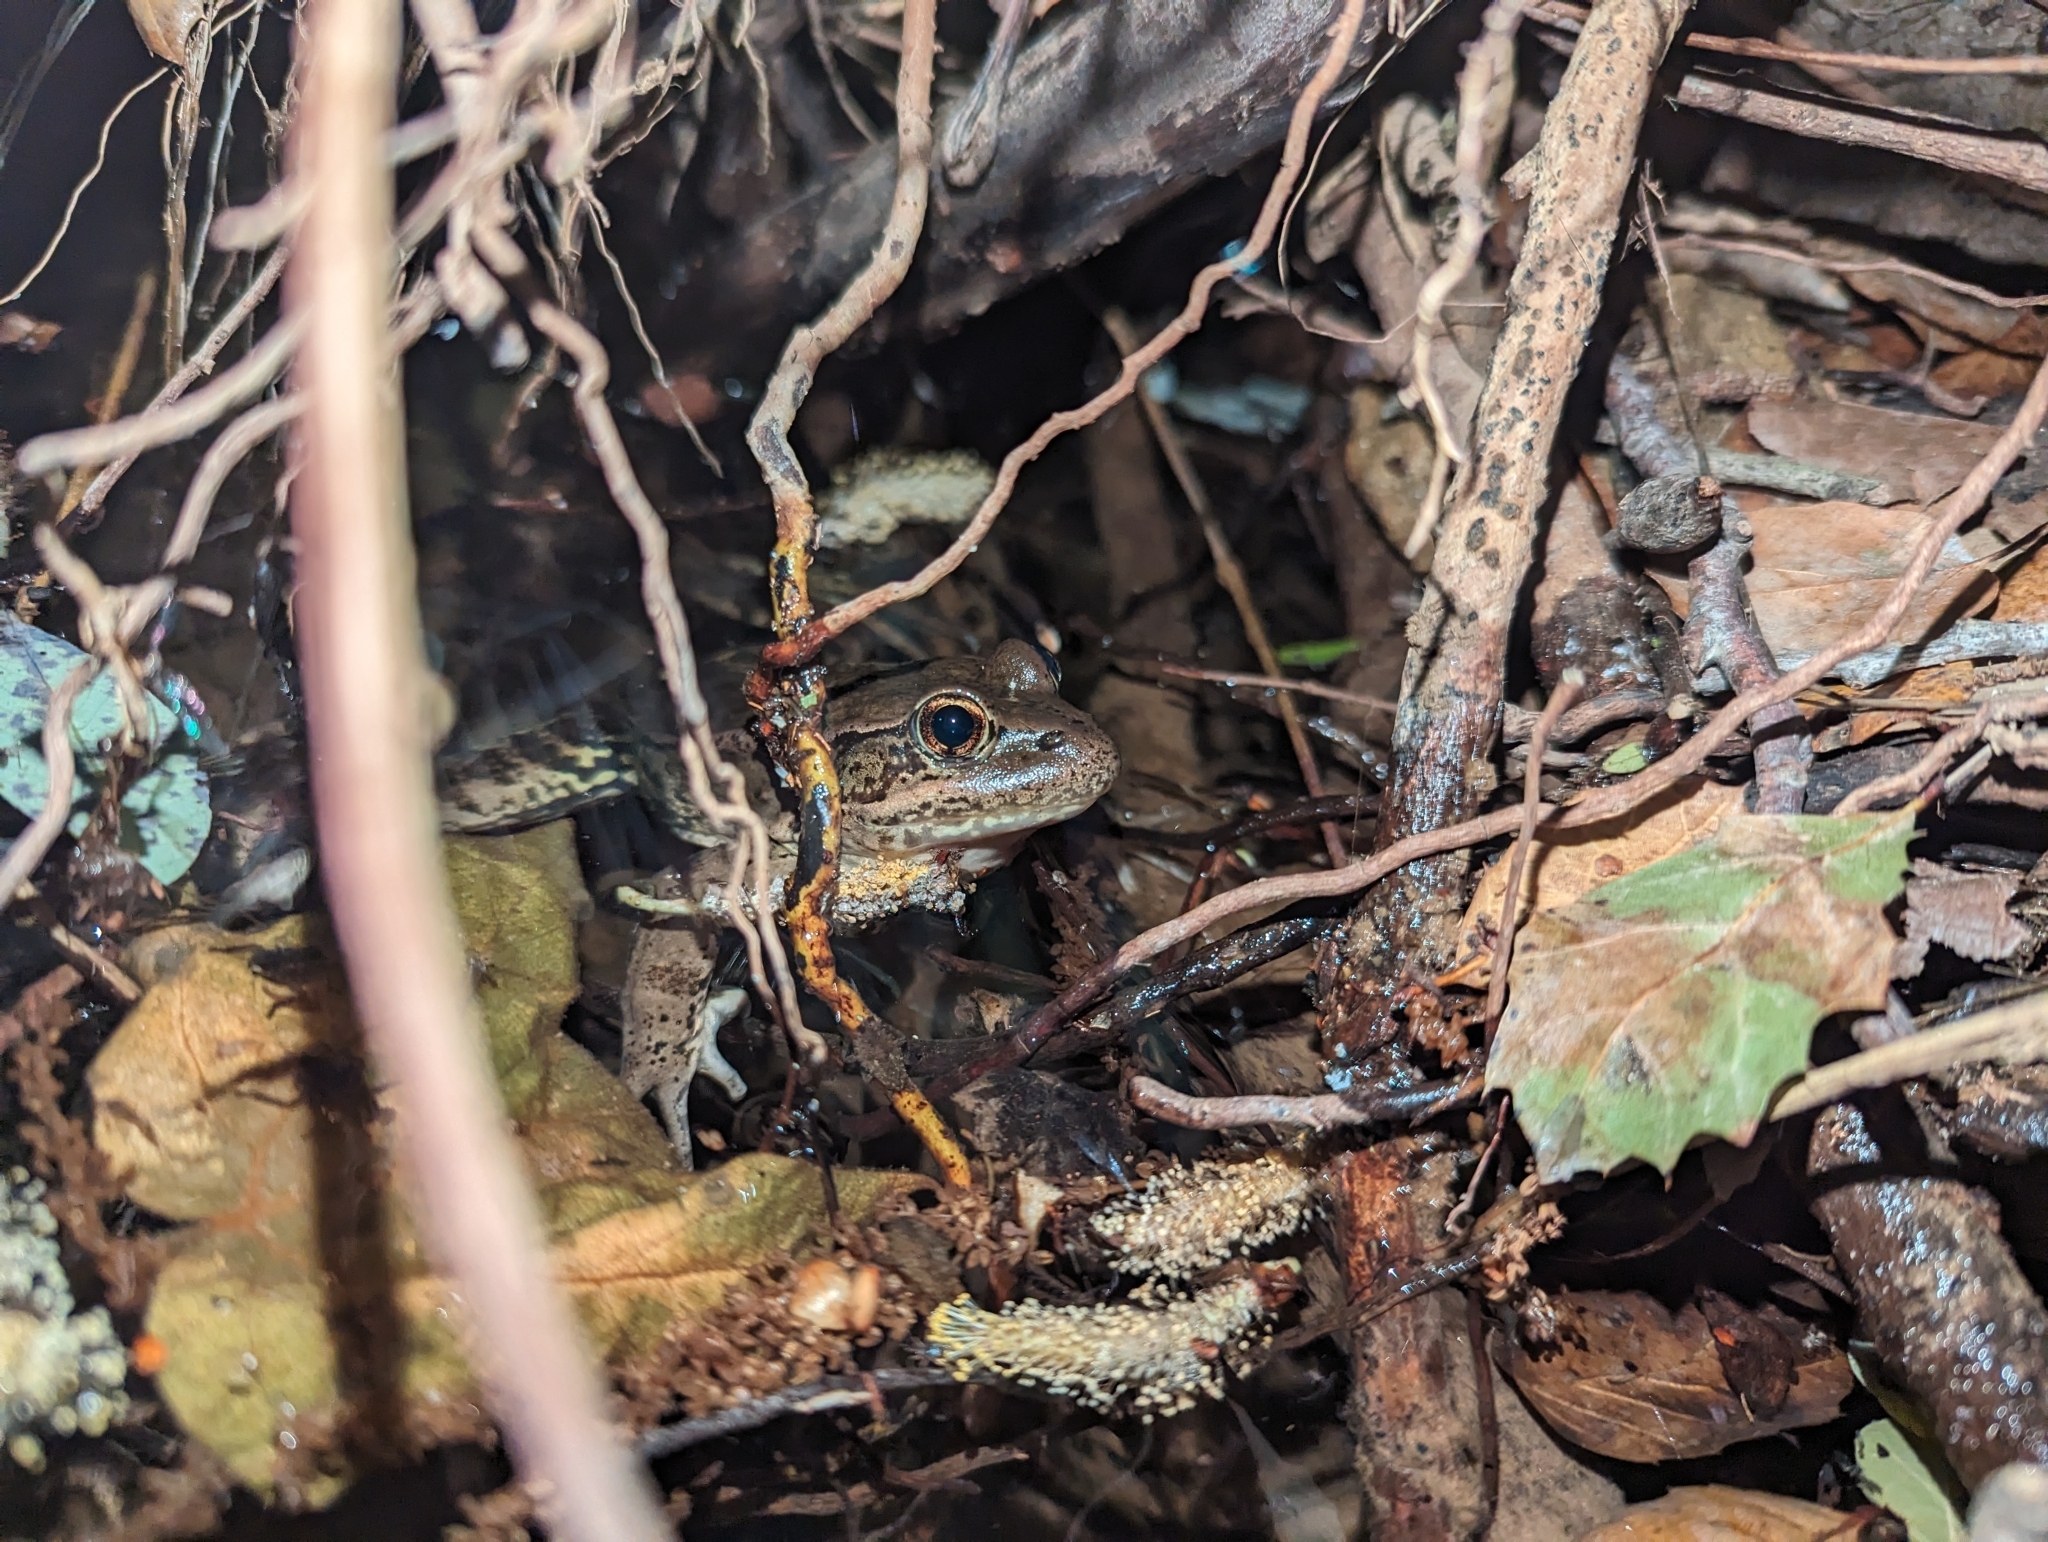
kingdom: Animalia
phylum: Chordata
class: Amphibia
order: Anura
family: Ranidae
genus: Rana
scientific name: Rana draytonii
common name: California red-legged frog
